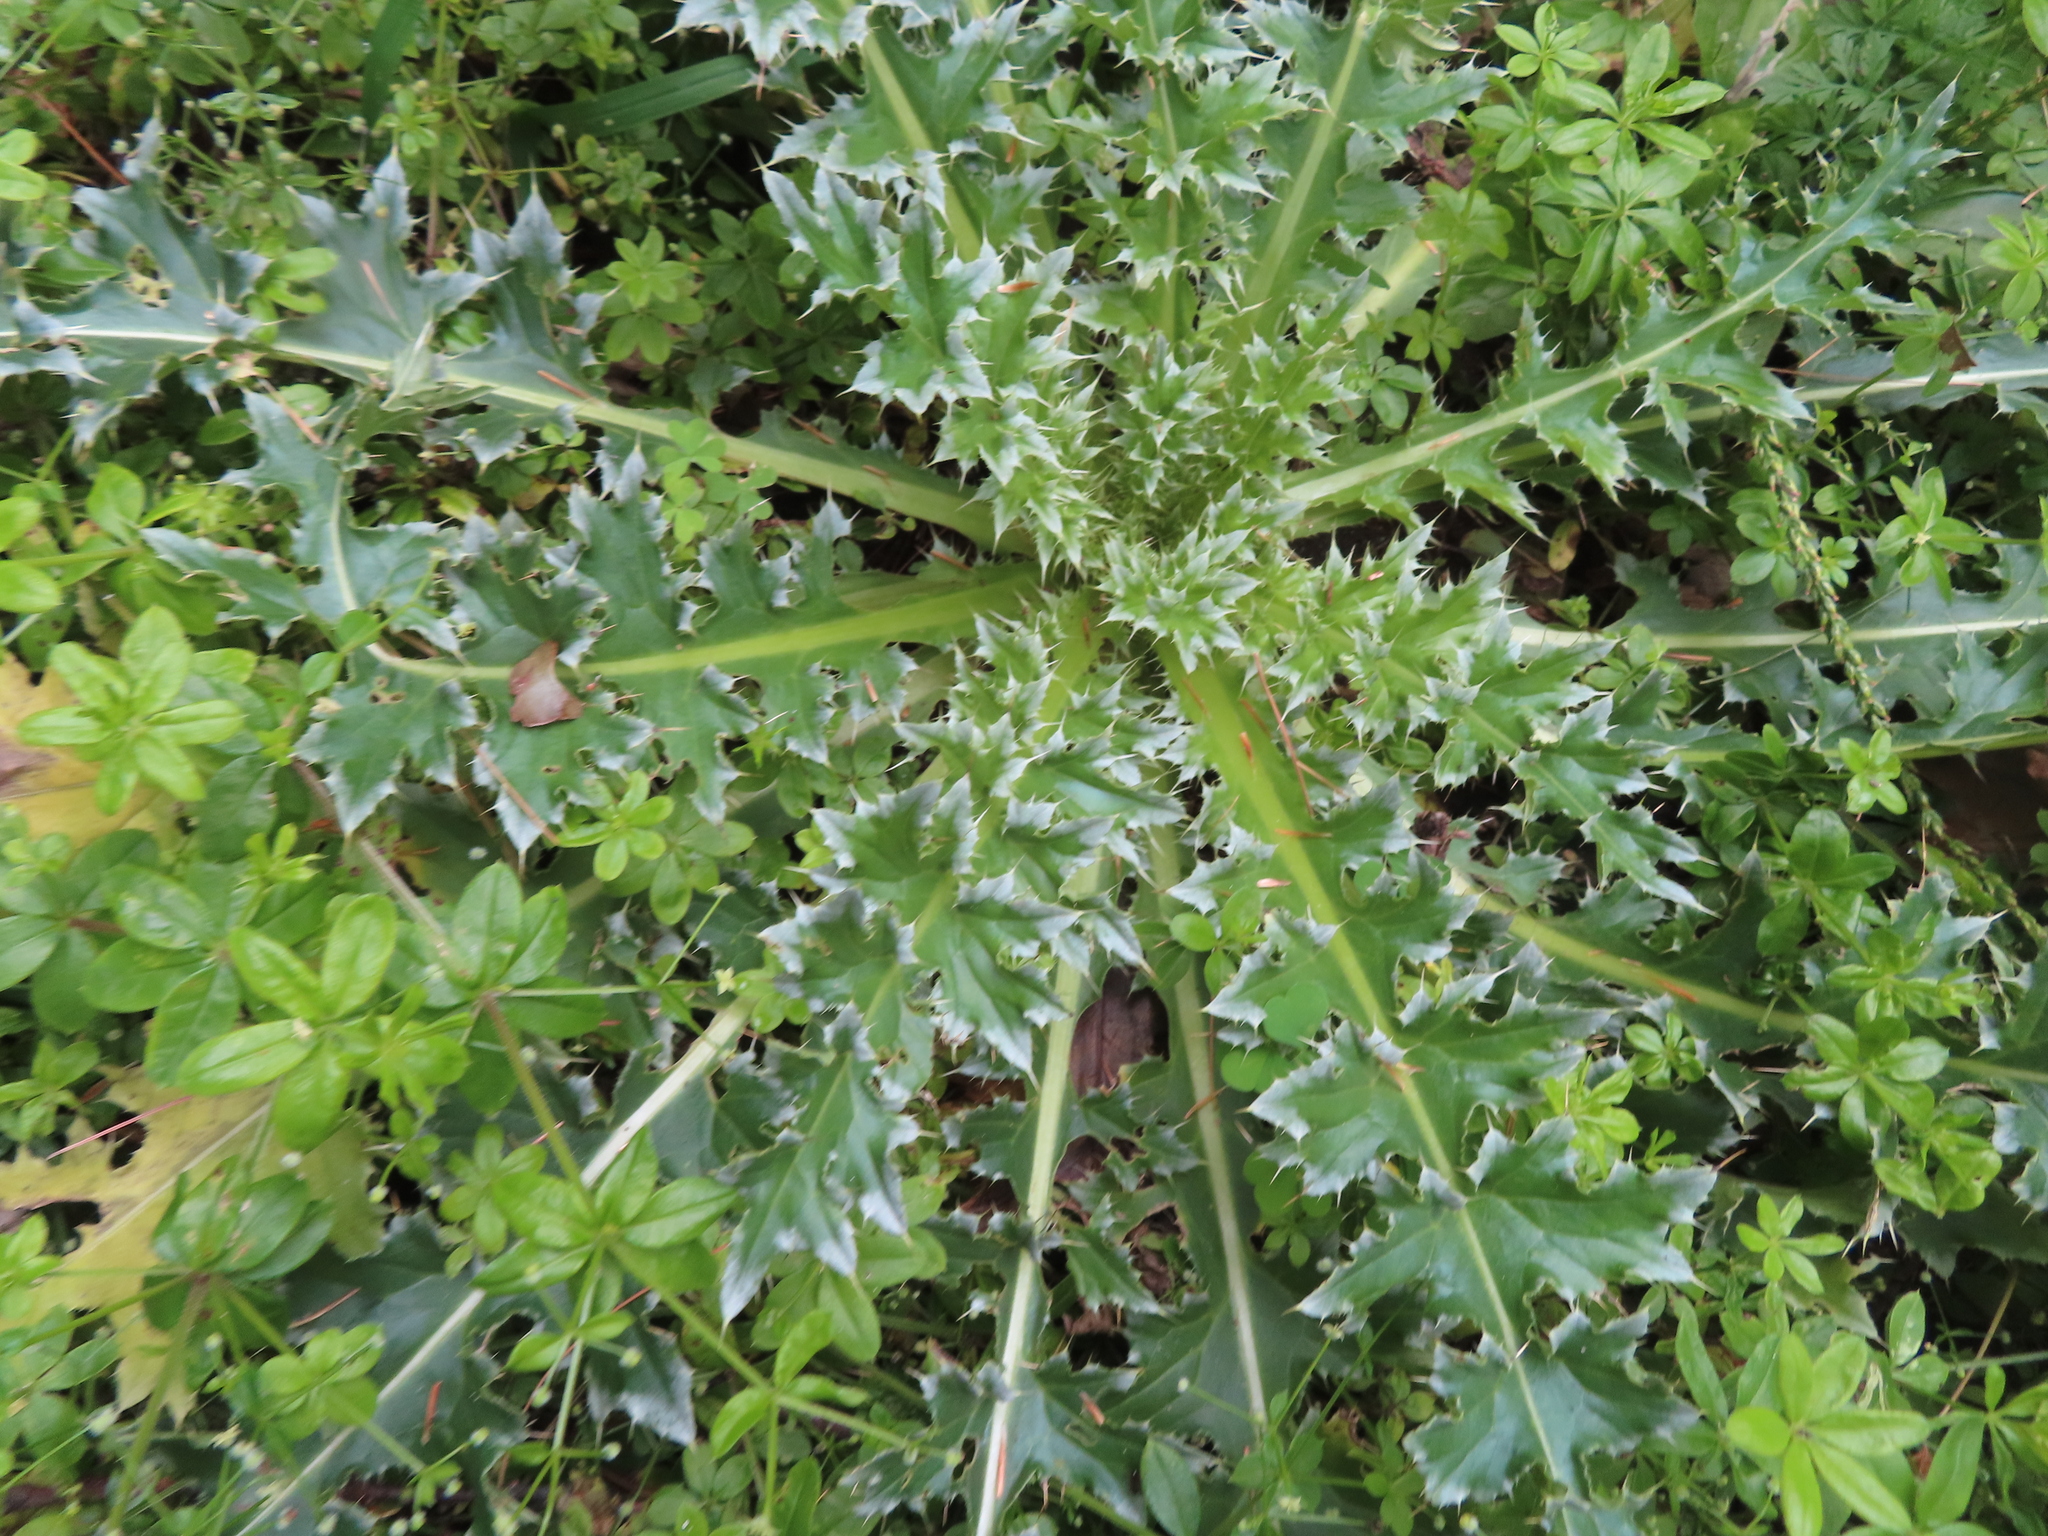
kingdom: Plantae
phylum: Tracheophyta
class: Magnoliopsida
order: Asterales
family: Asteraceae
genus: Carduus
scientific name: Carduus nutans
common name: Musk thistle
